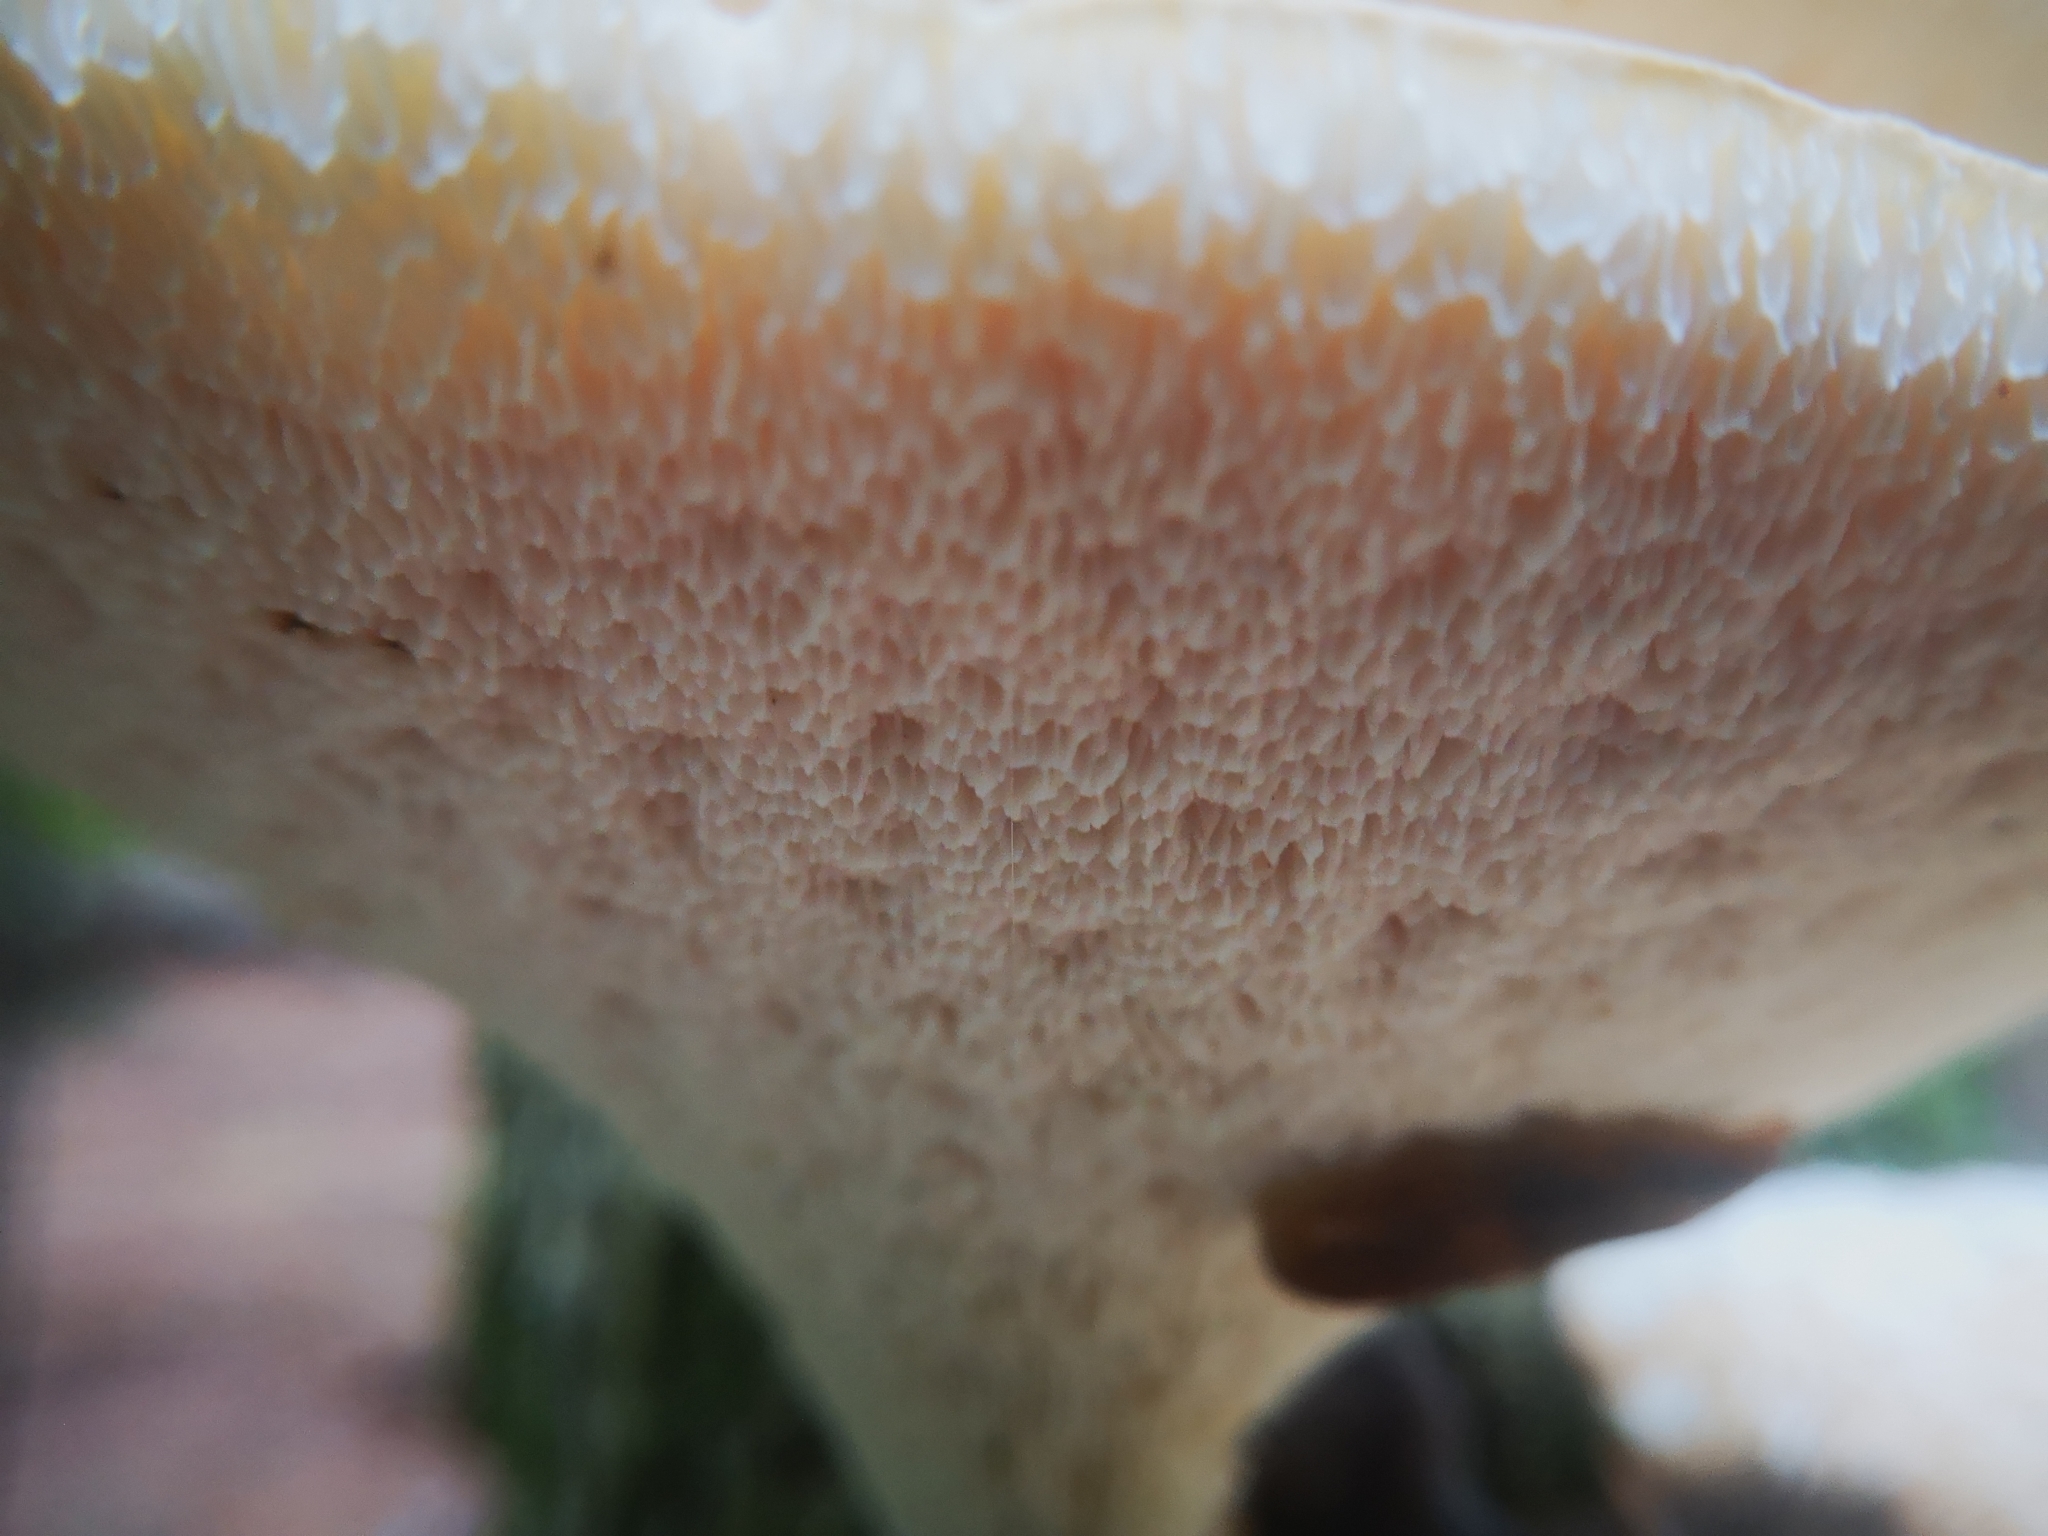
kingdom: Fungi
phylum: Basidiomycota
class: Agaricomycetes
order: Polyporales
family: Polyporaceae
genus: Cerioporus
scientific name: Cerioporus squamosus
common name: Dryad's saddle
